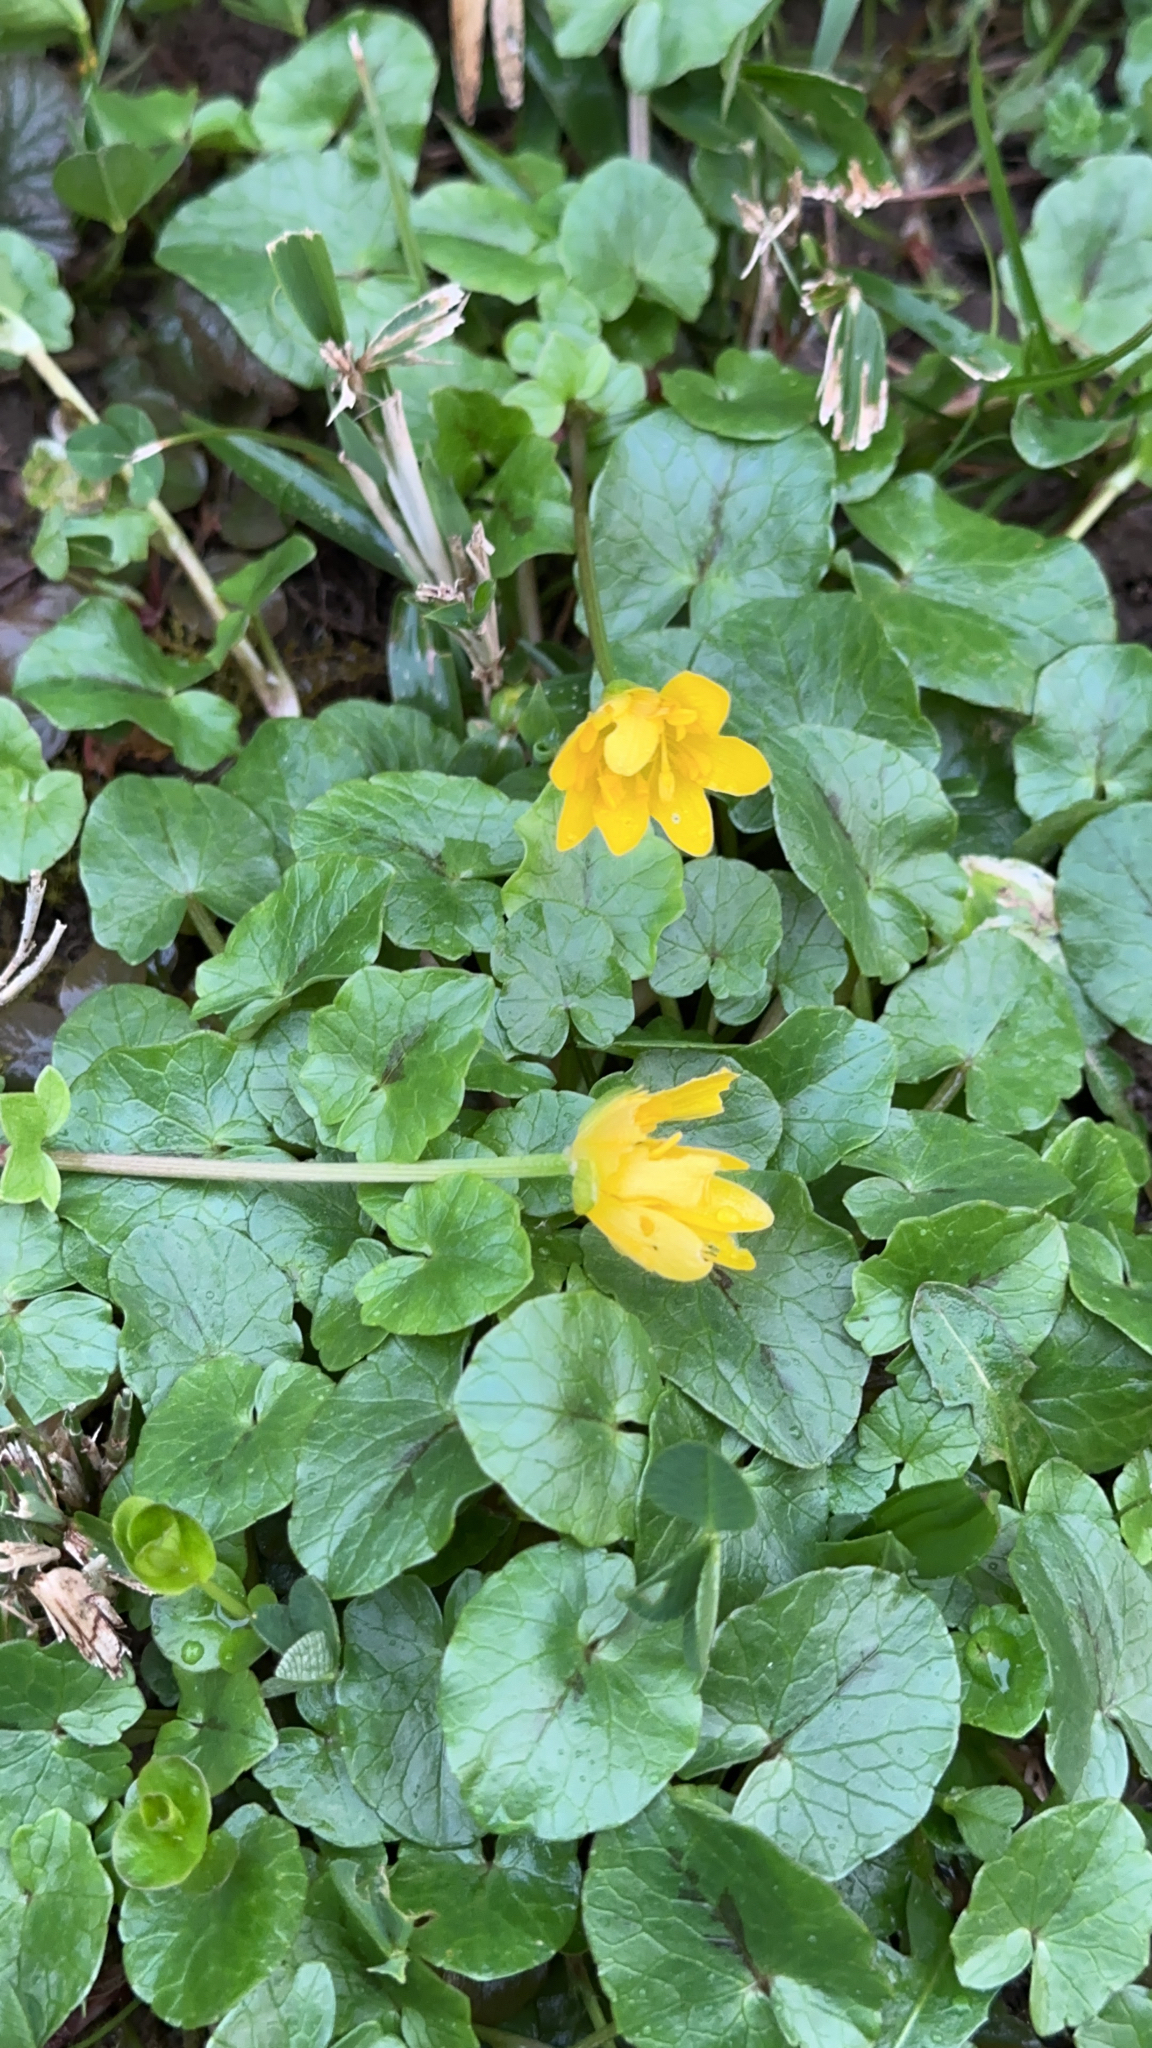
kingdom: Plantae
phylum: Tracheophyta
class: Magnoliopsida
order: Ranunculales
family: Ranunculaceae
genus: Ficaria
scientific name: Ficaria verna
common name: Lesser celandine
